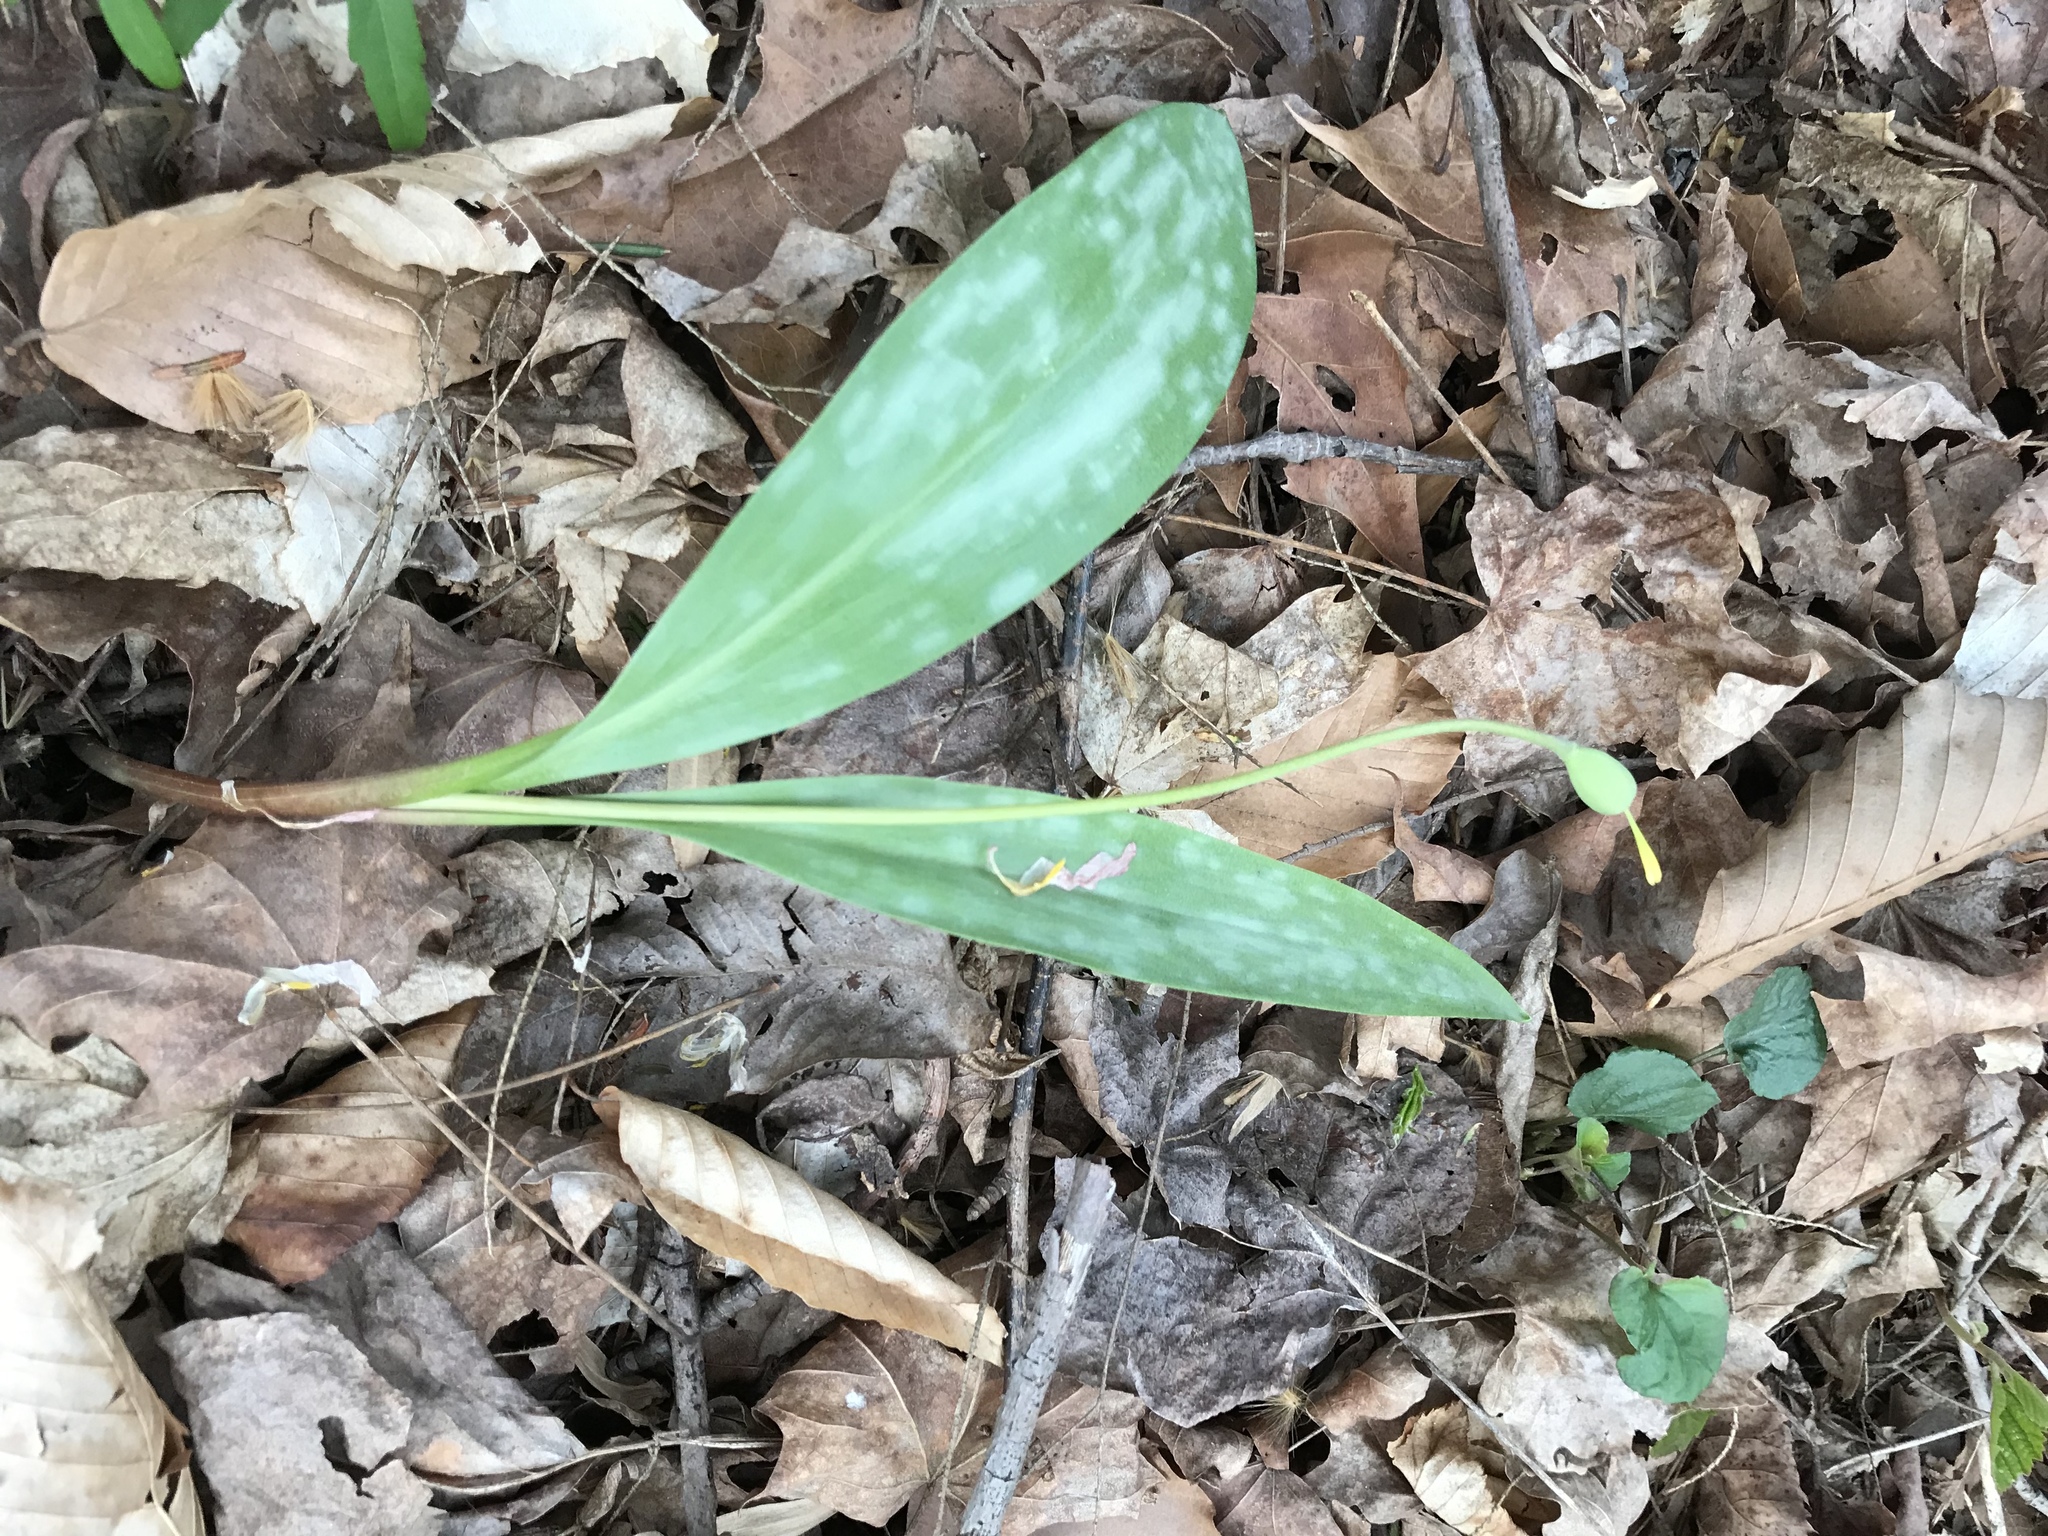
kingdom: Plantae
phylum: Tracheophyta
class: Liliopsida
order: Liliales
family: Liliaceae
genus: Erythronium
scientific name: Erythronium americanum
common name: Yellow adder's-tongue
